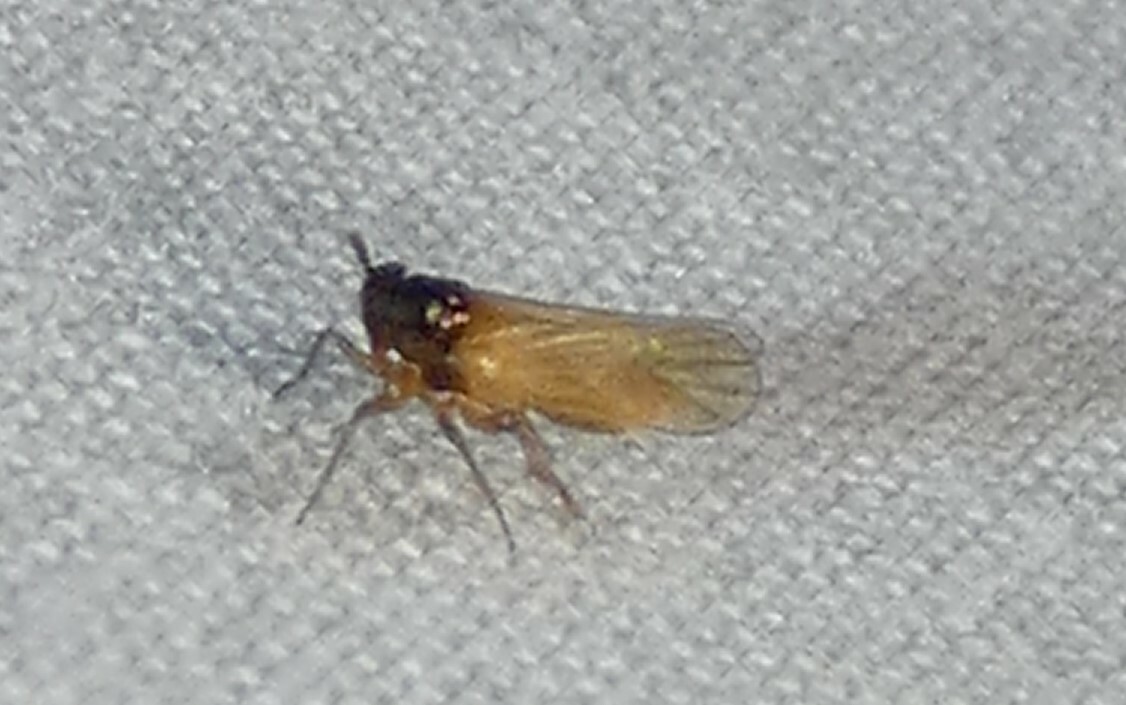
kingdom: Animalia
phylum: Arthropoda
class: Insecta
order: Hemiptera
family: Delphacidae
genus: Penepissonotus
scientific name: Penepissonotus bicolor
